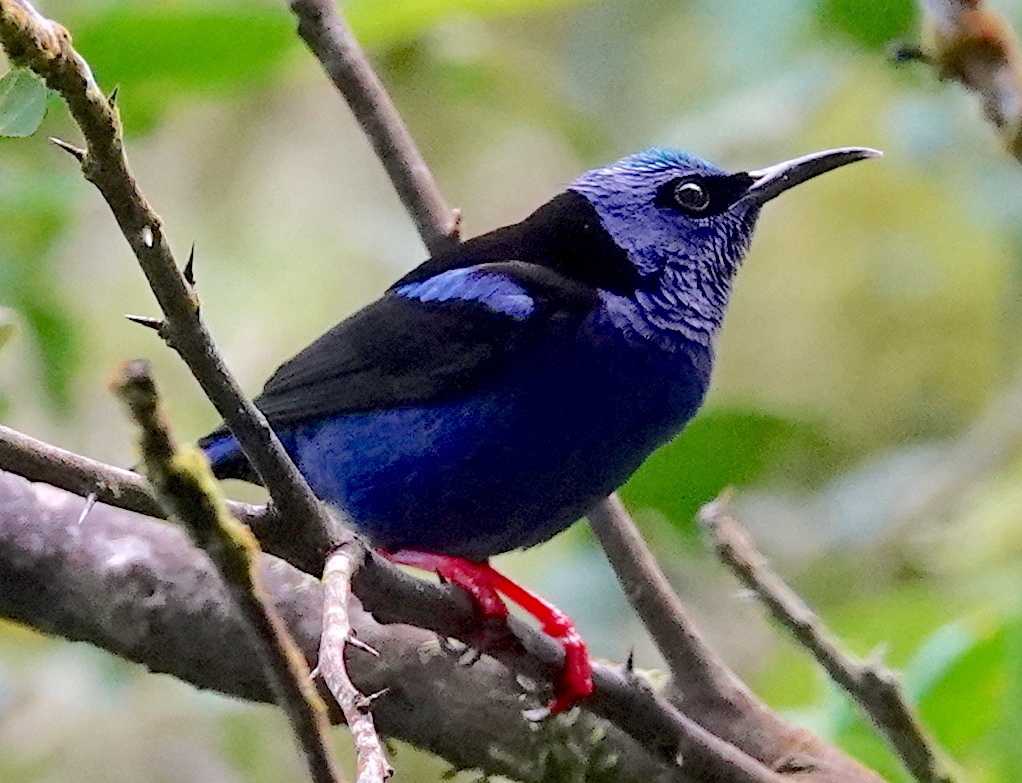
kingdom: Animalia
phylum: Chordata
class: Aves
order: Passeriformes
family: Thraupidae
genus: Cyanerpes
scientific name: Cyanerpes cyaneus
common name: Red-legged honeycreeper
